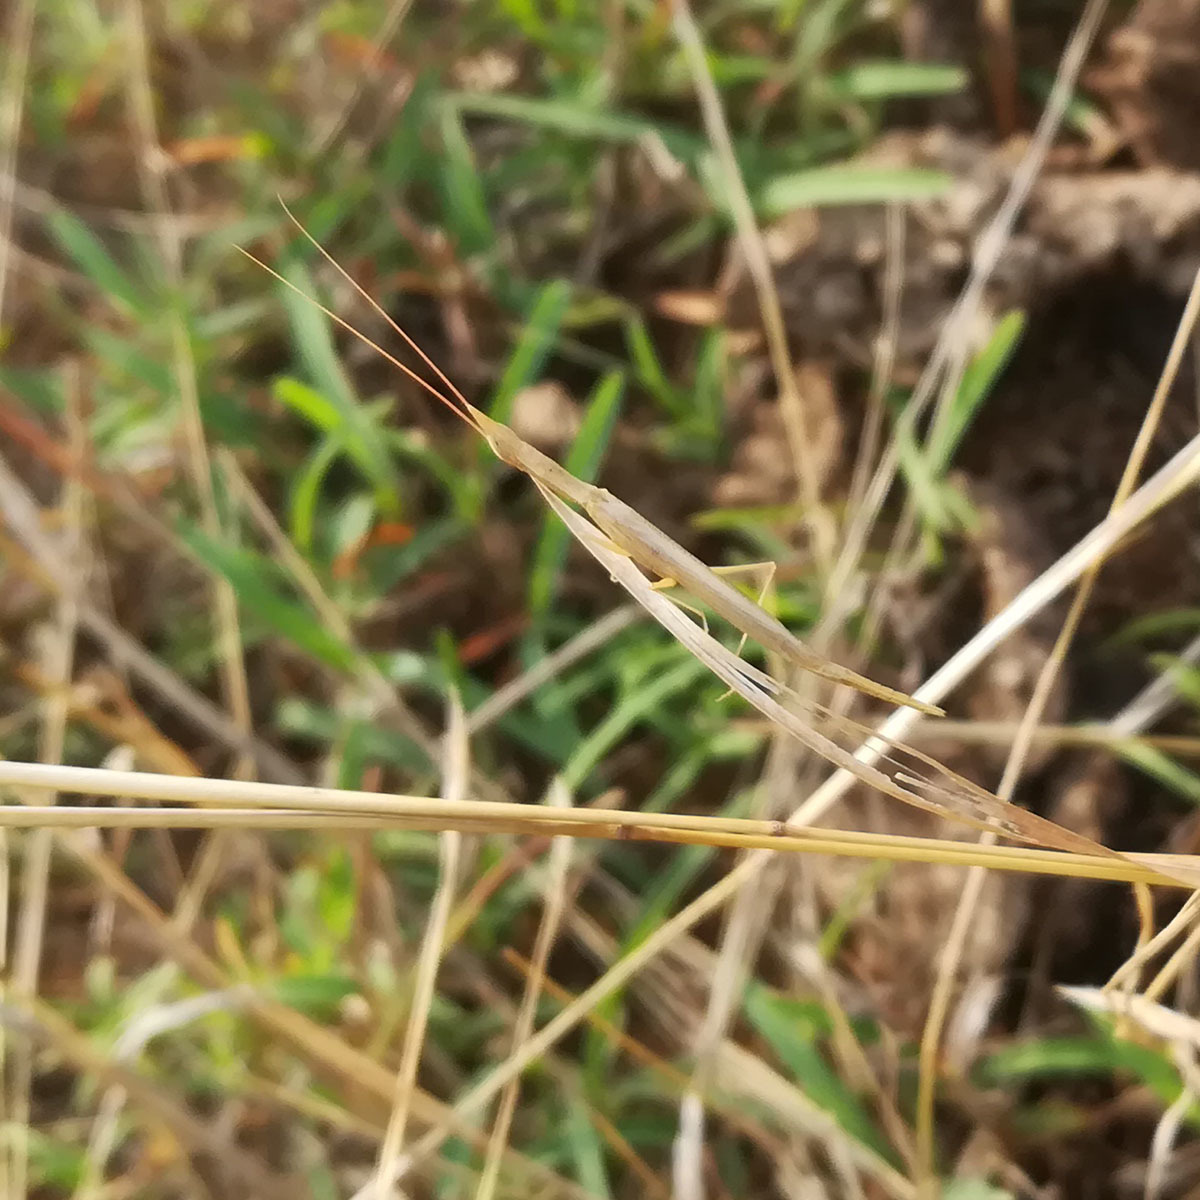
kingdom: Animalia
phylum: Arthropoda
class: Insecta
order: Mantodea
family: Eremiaphilidae
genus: Didymocorypha
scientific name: Didymocorypha lanceolata
